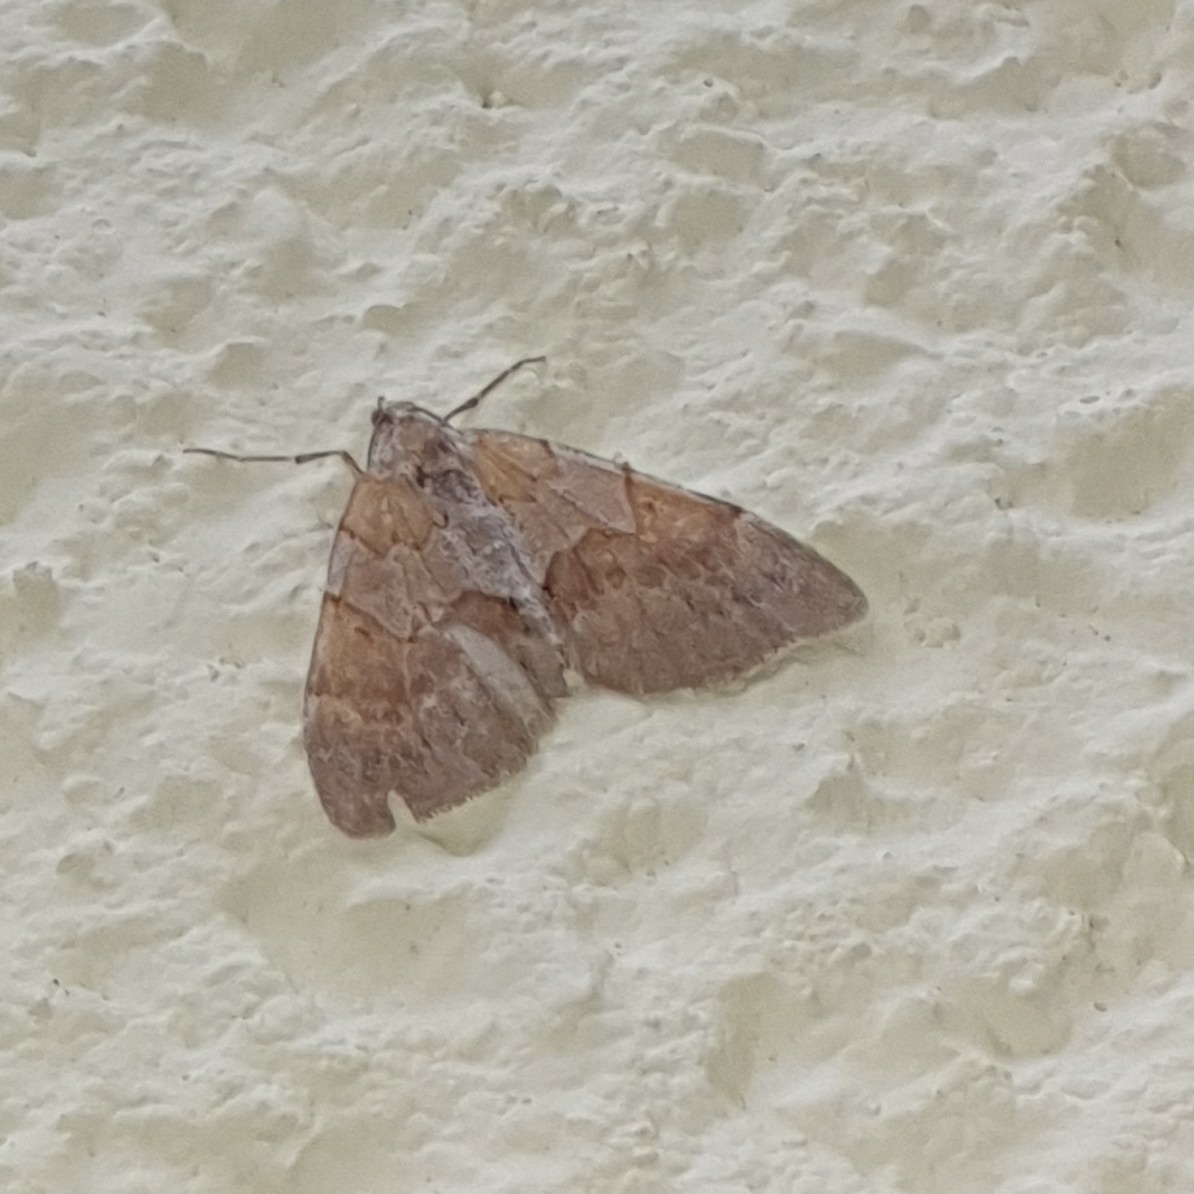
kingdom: Animalia
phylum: Arthropoda
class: Insecta
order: Lepidoptera
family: Geometridae
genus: Pennithera
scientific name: Pennithera firmata
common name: Pine carpet
